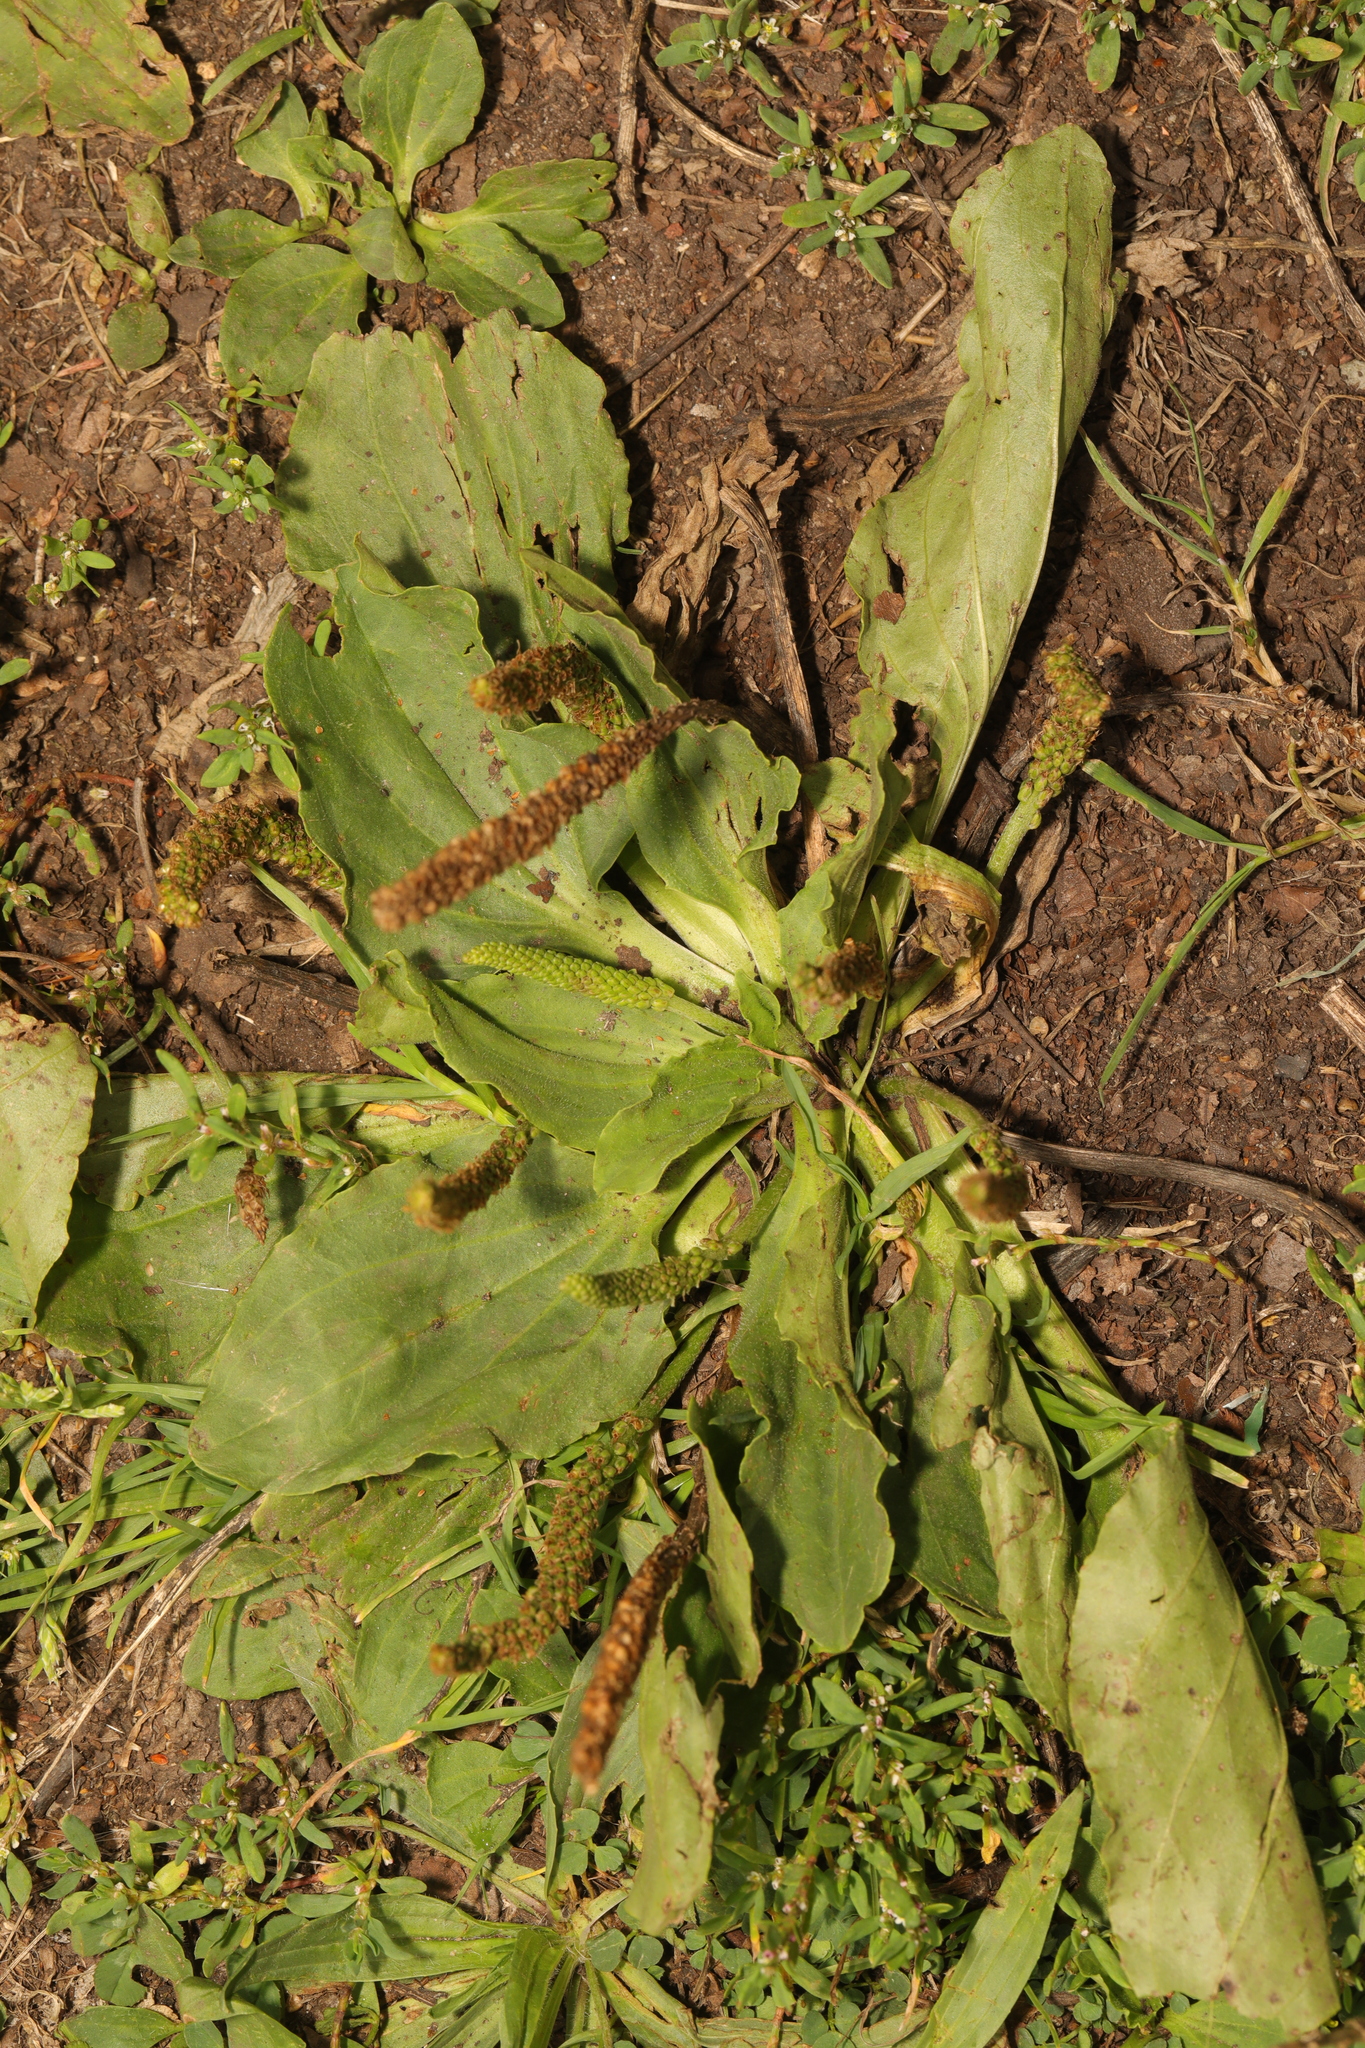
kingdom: Plantae
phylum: Tracheophyta
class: Magnoliopsida
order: Lamiales
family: Plantaginaceae
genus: Plantago
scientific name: Plantago major
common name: Common plantain
